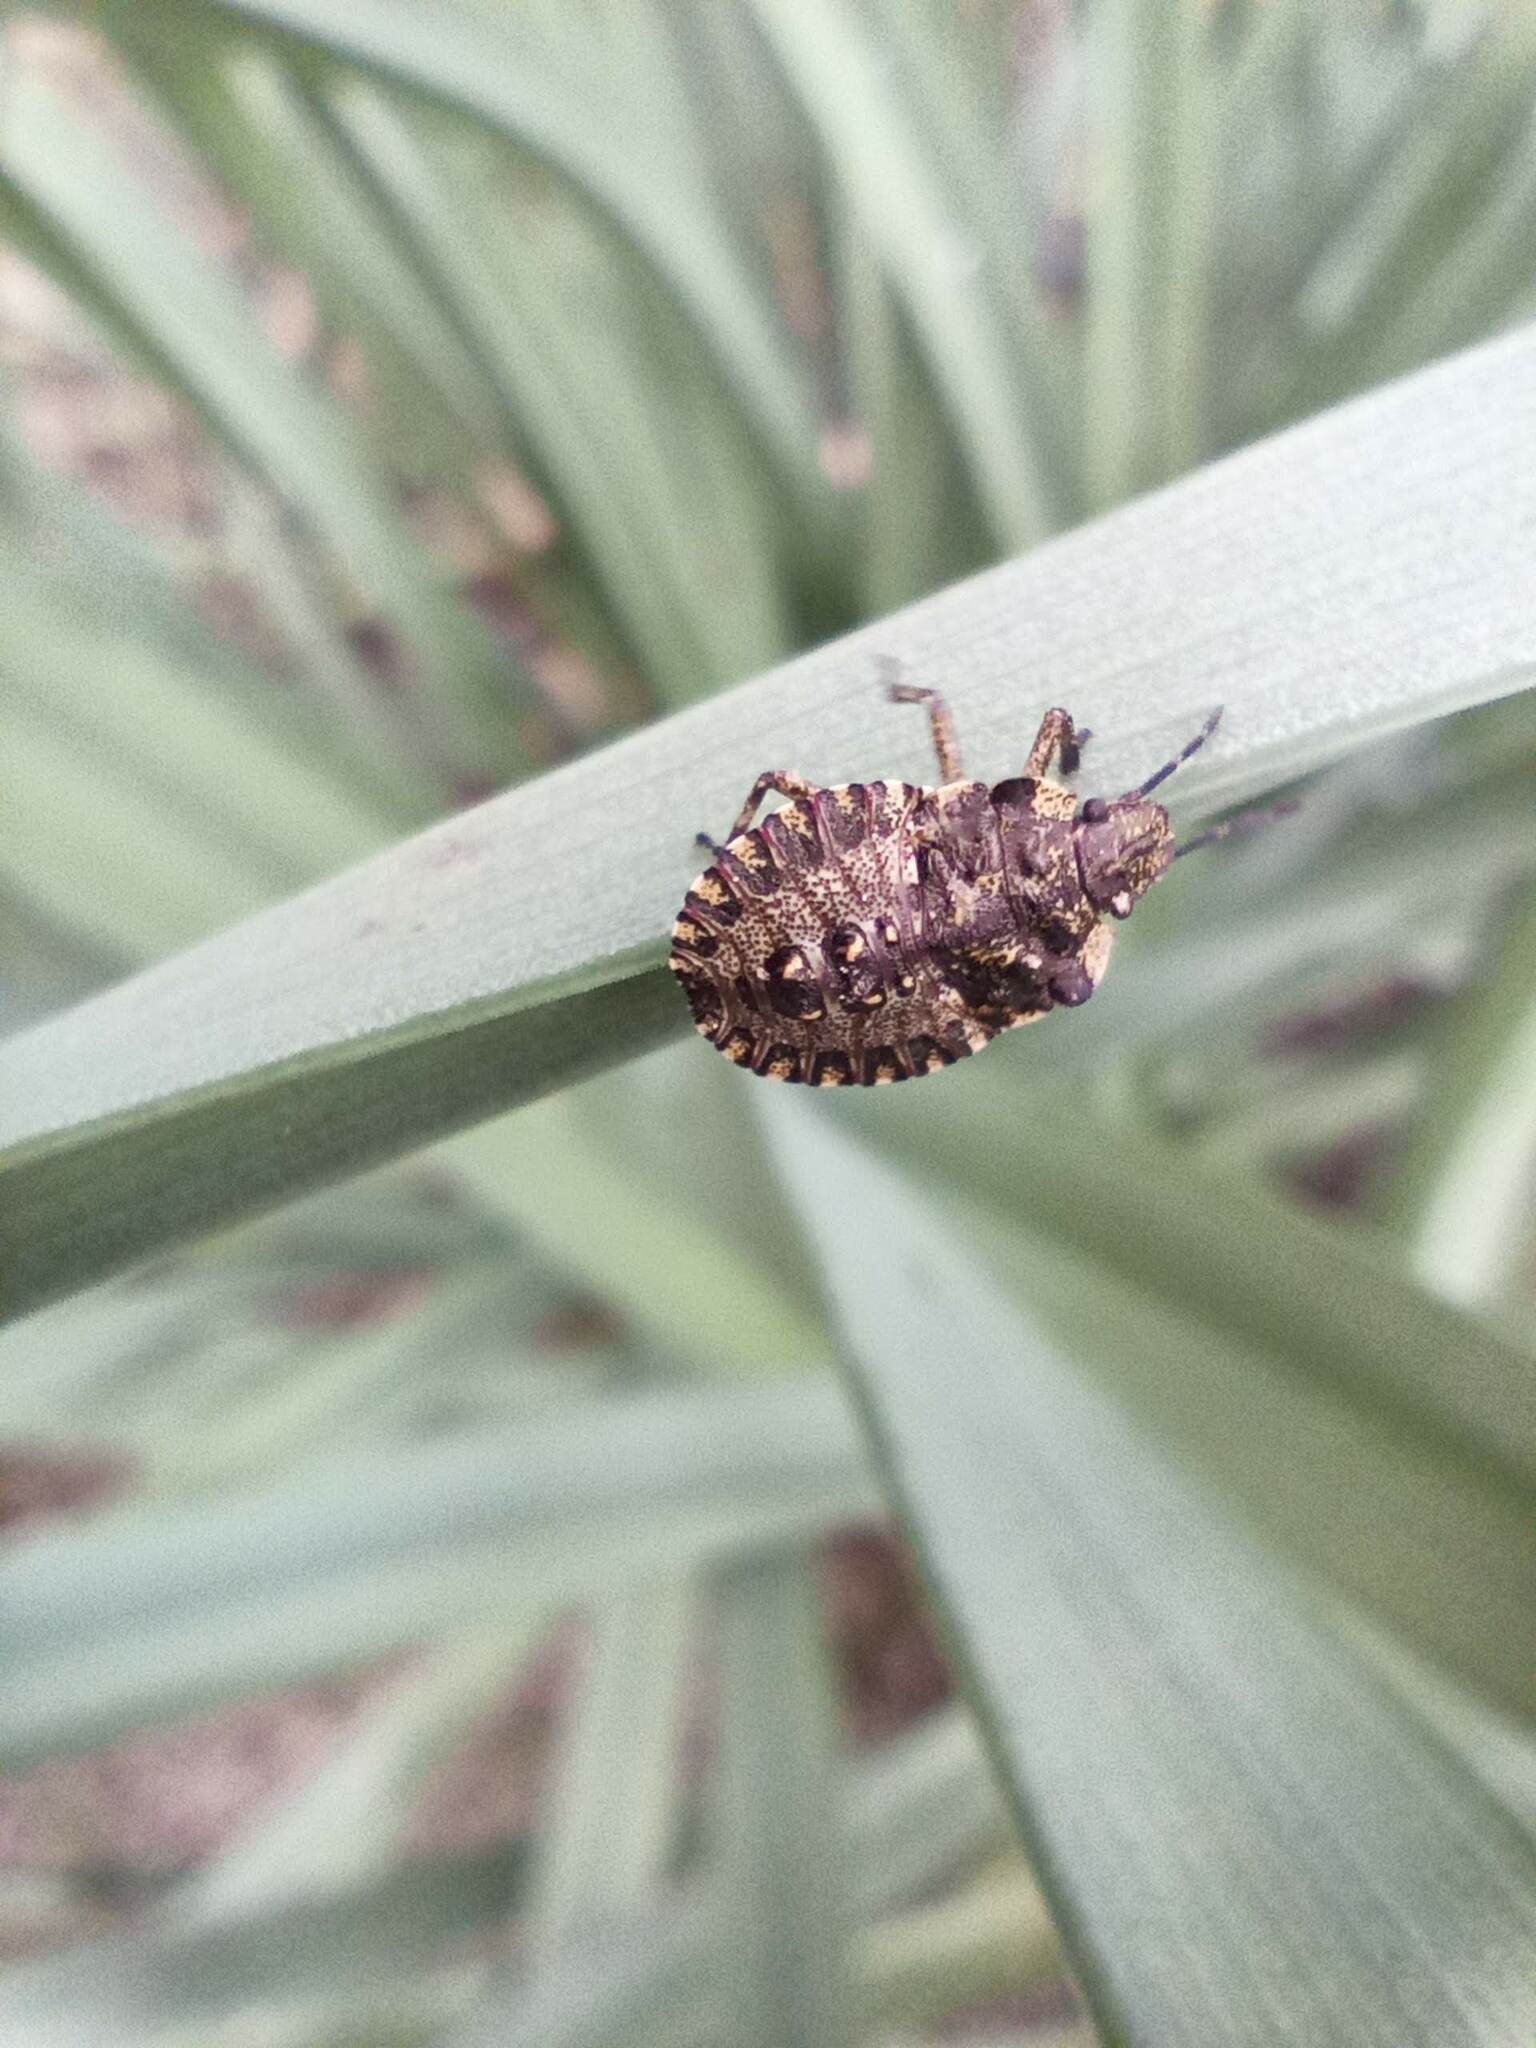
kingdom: Animalia
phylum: Arthropoda
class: Insecta
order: Hemiptera
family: Pentatomidae
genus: Pentatoma
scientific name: Pentatoma rufipes
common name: Forest bug
